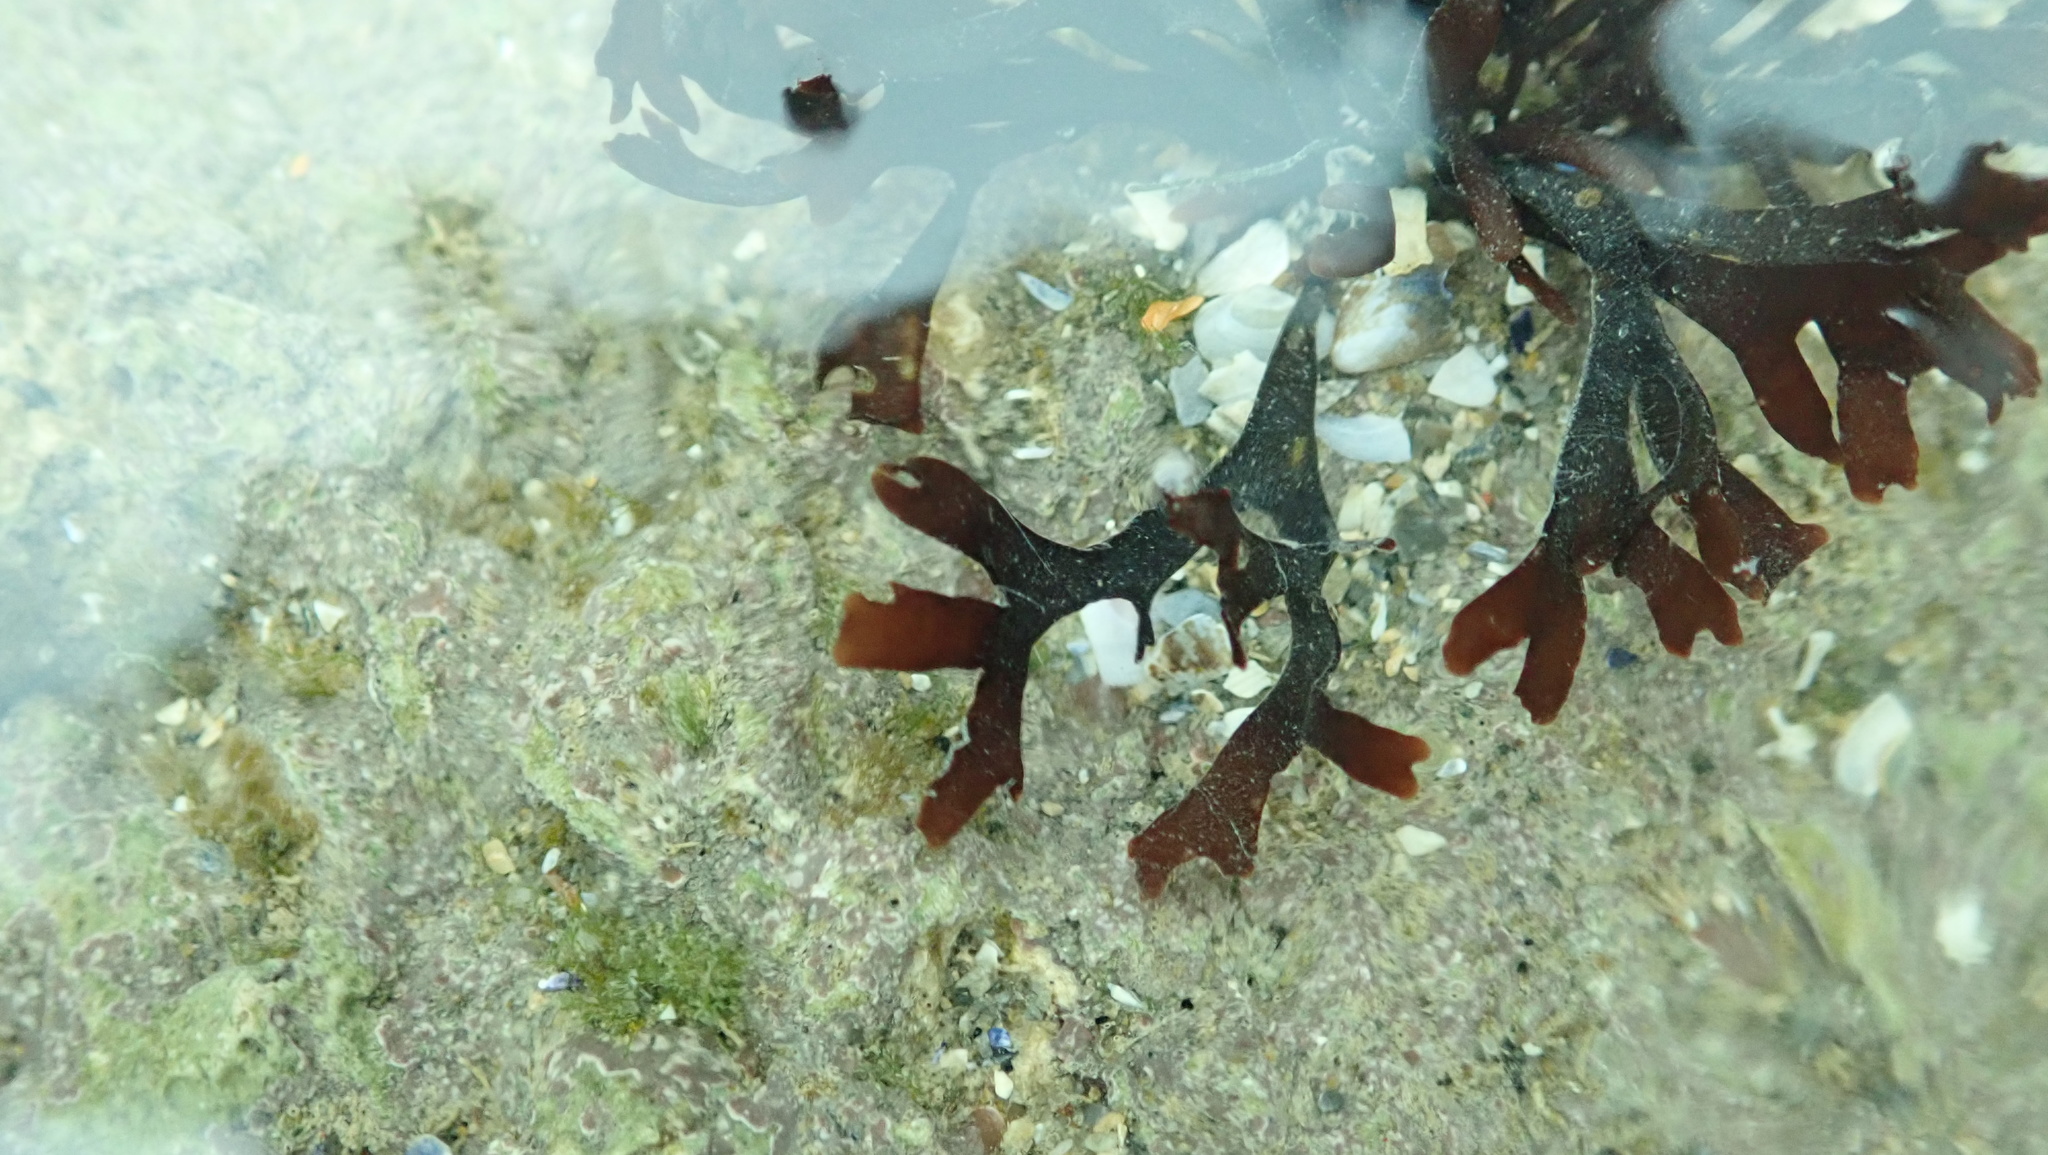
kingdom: Plantae
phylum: Rhodophyta
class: Florideophyceae
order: Gigartinales
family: Gigartinaceae
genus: Chondrus
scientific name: Chondrus crispus
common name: Carrageen
